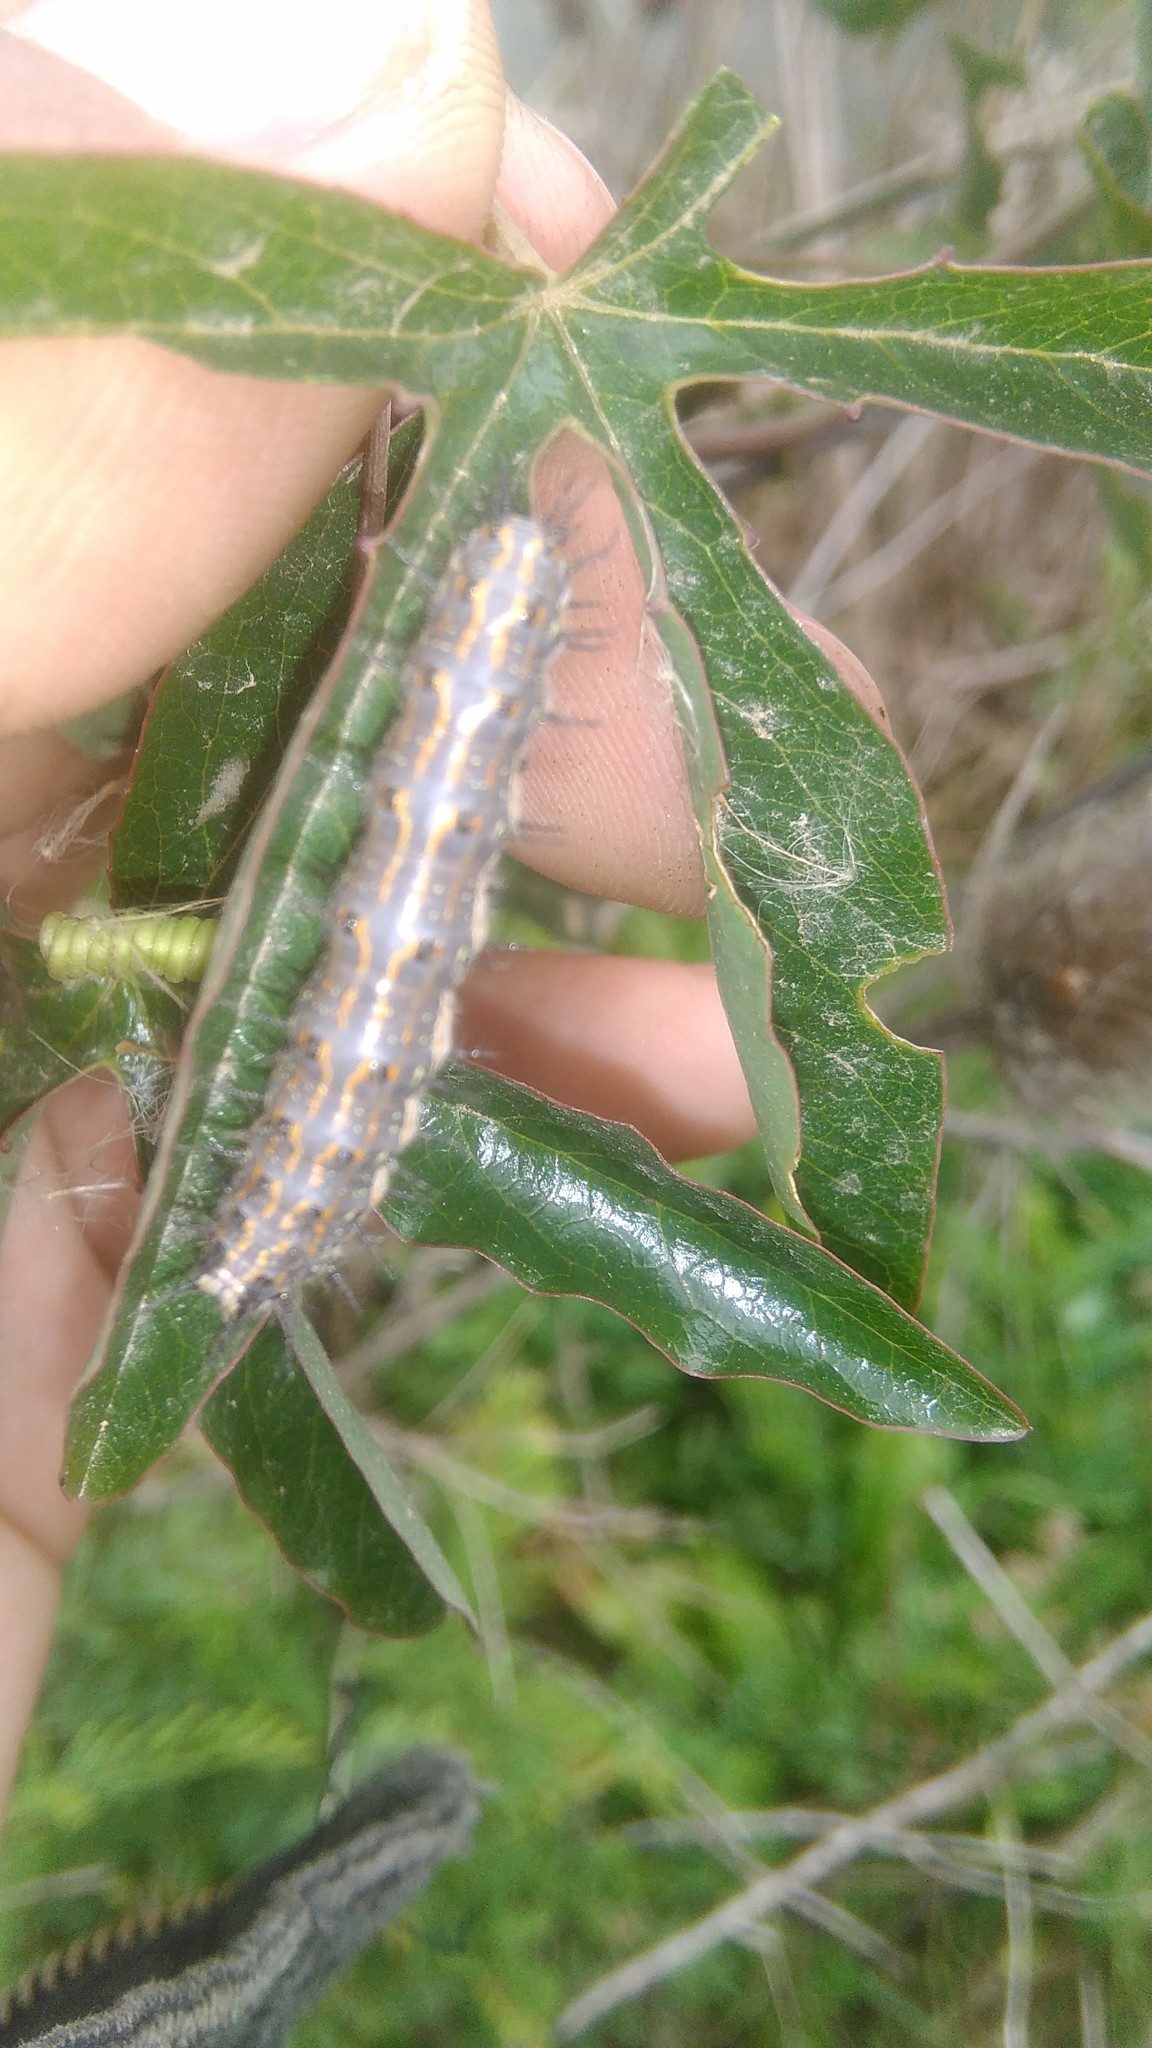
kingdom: Animalia
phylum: Arthropoda
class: Insecta
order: Lepidoptera
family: Nymphalidae
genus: Dione
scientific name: Dione vanillae
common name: Gulf fritillary
